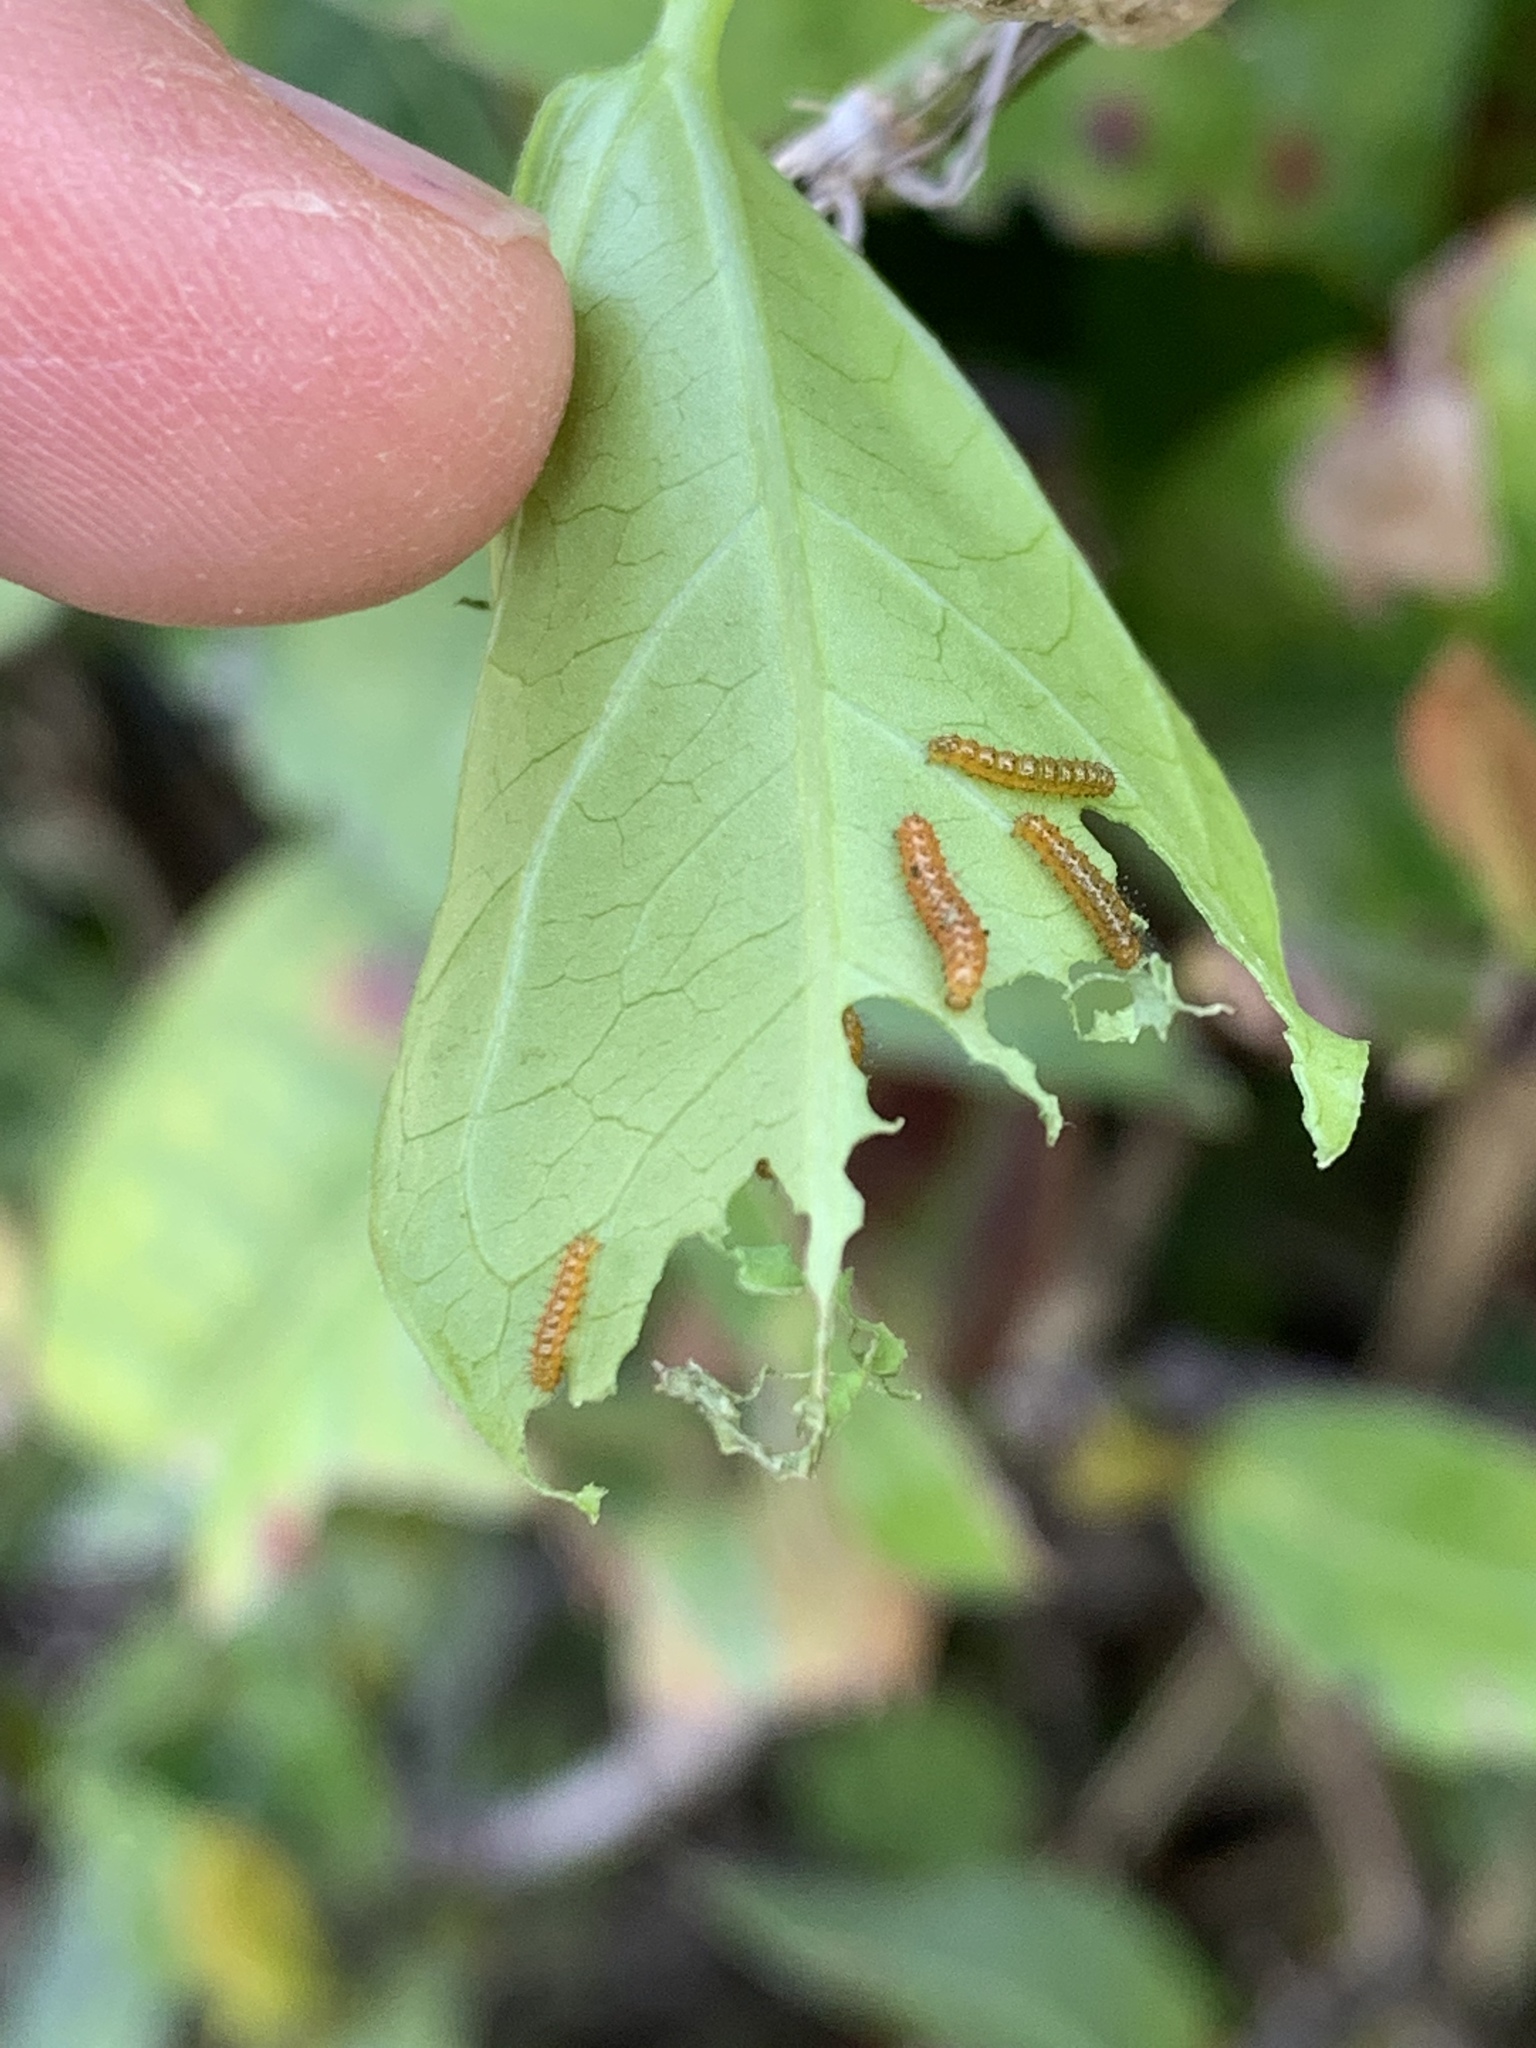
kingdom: Animalia
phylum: Arthropoda
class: Insecta
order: Lepidoptera
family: Nymphalidae
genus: Heliconius
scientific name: Heliconius charithonia
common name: Zebra long wing
